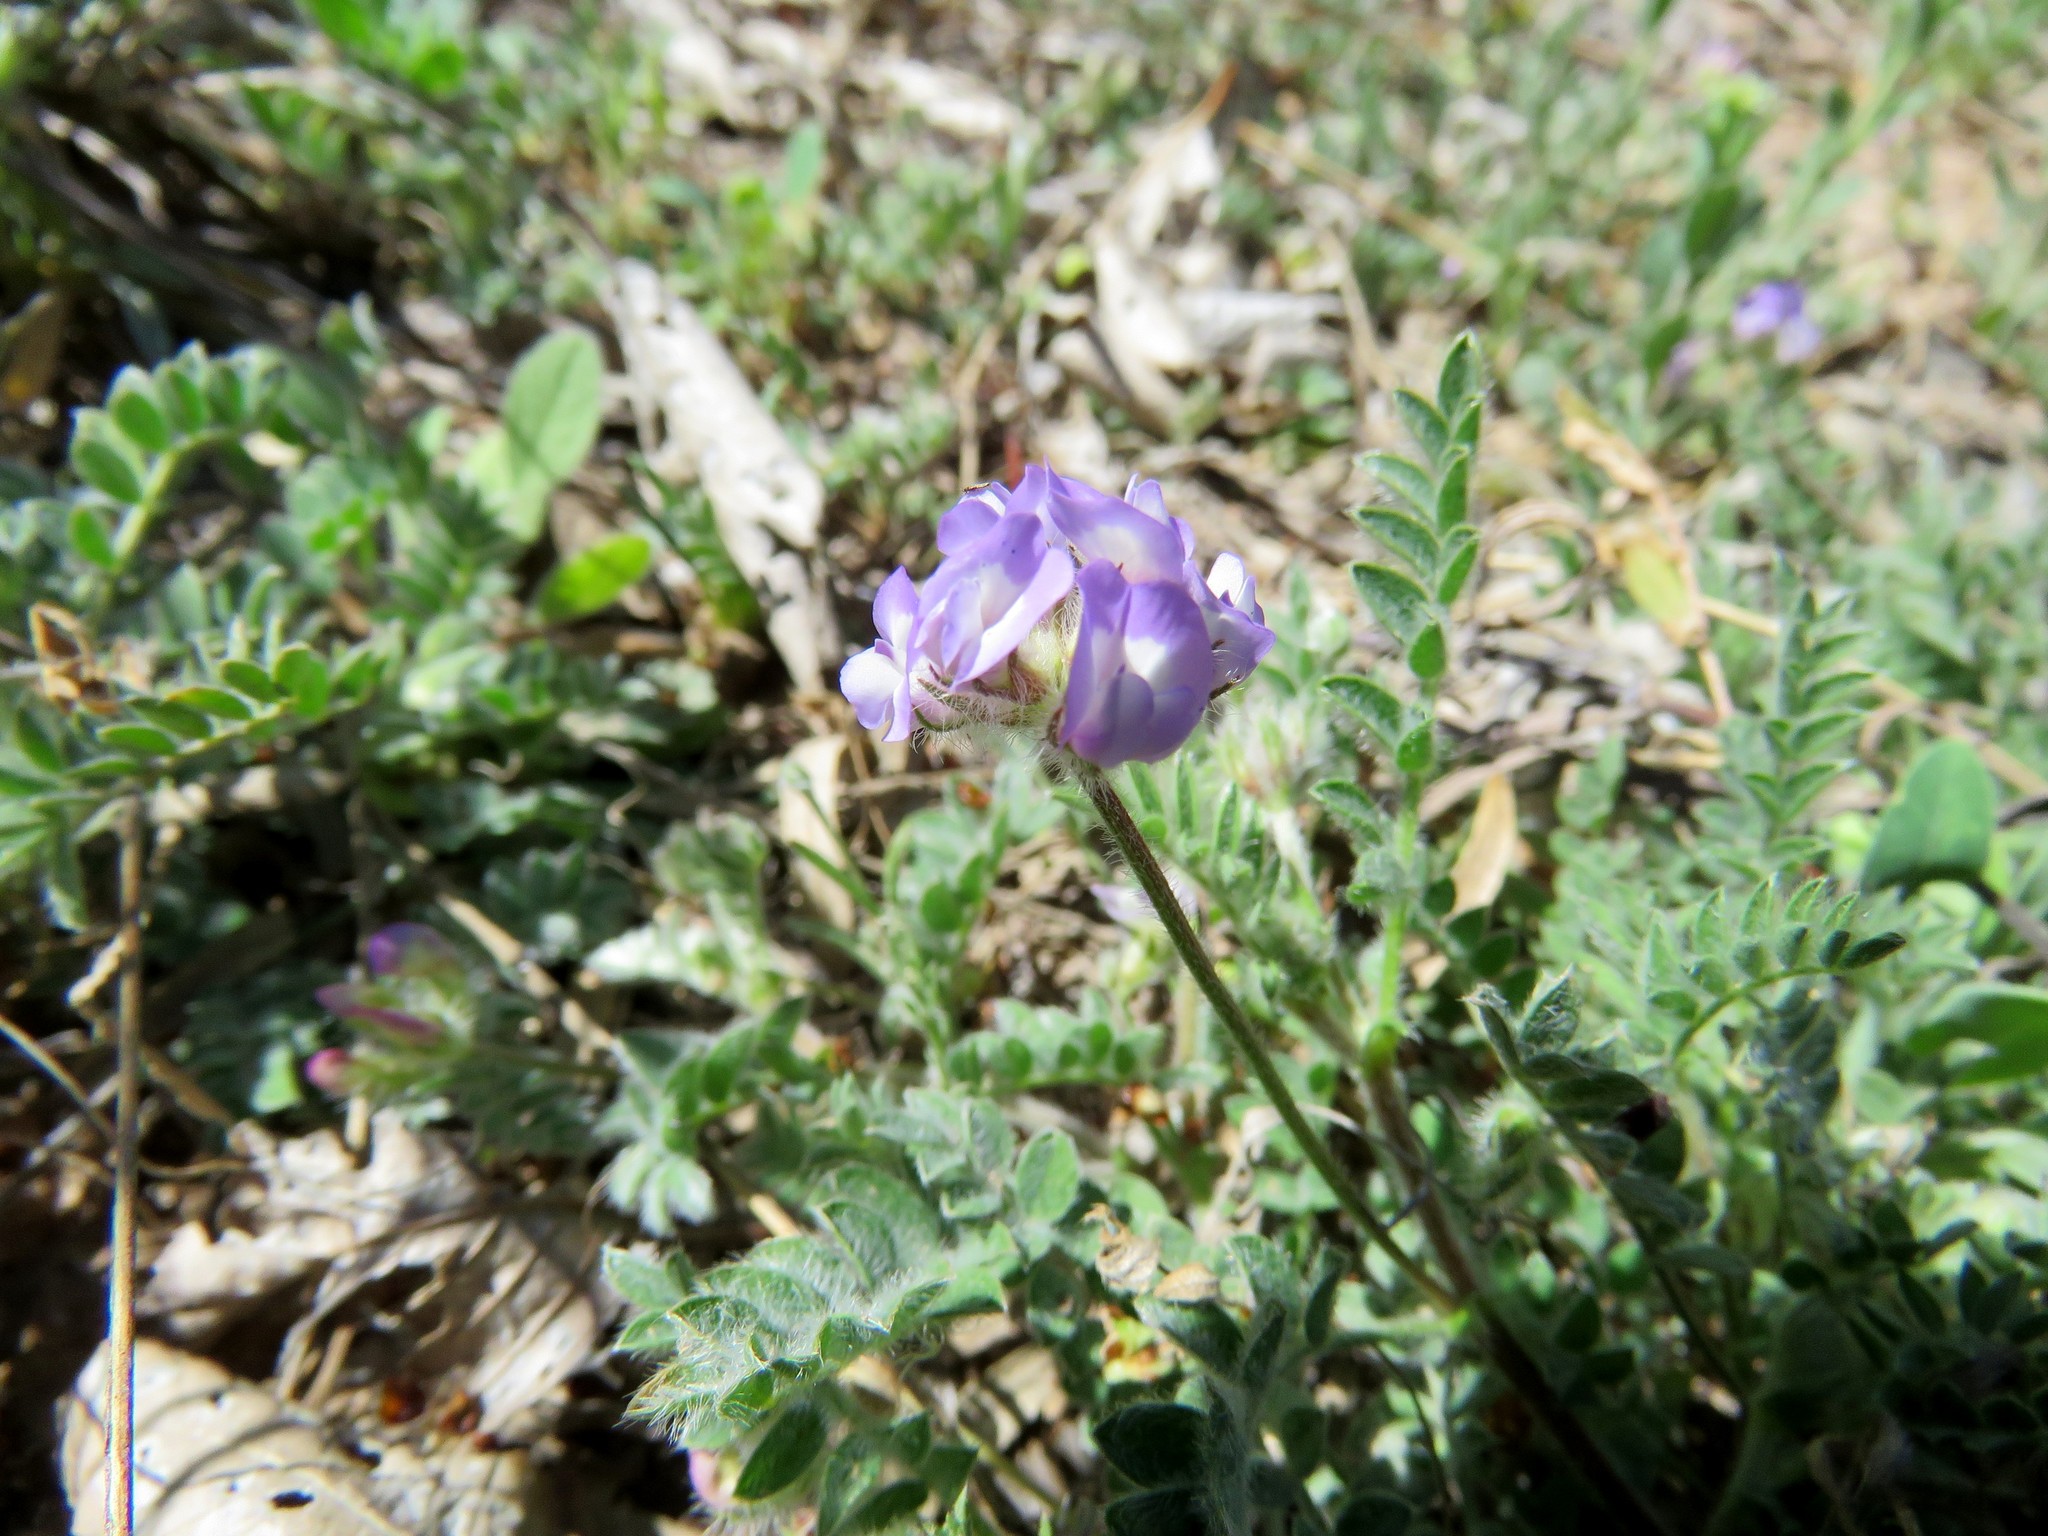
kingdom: Plantae
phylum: Tracheophyta
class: Magnoliopsida
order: Fabales
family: Fabaceae
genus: Astragalus
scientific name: Astragalus nuttallianus
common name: Smallflowered milkvetch
